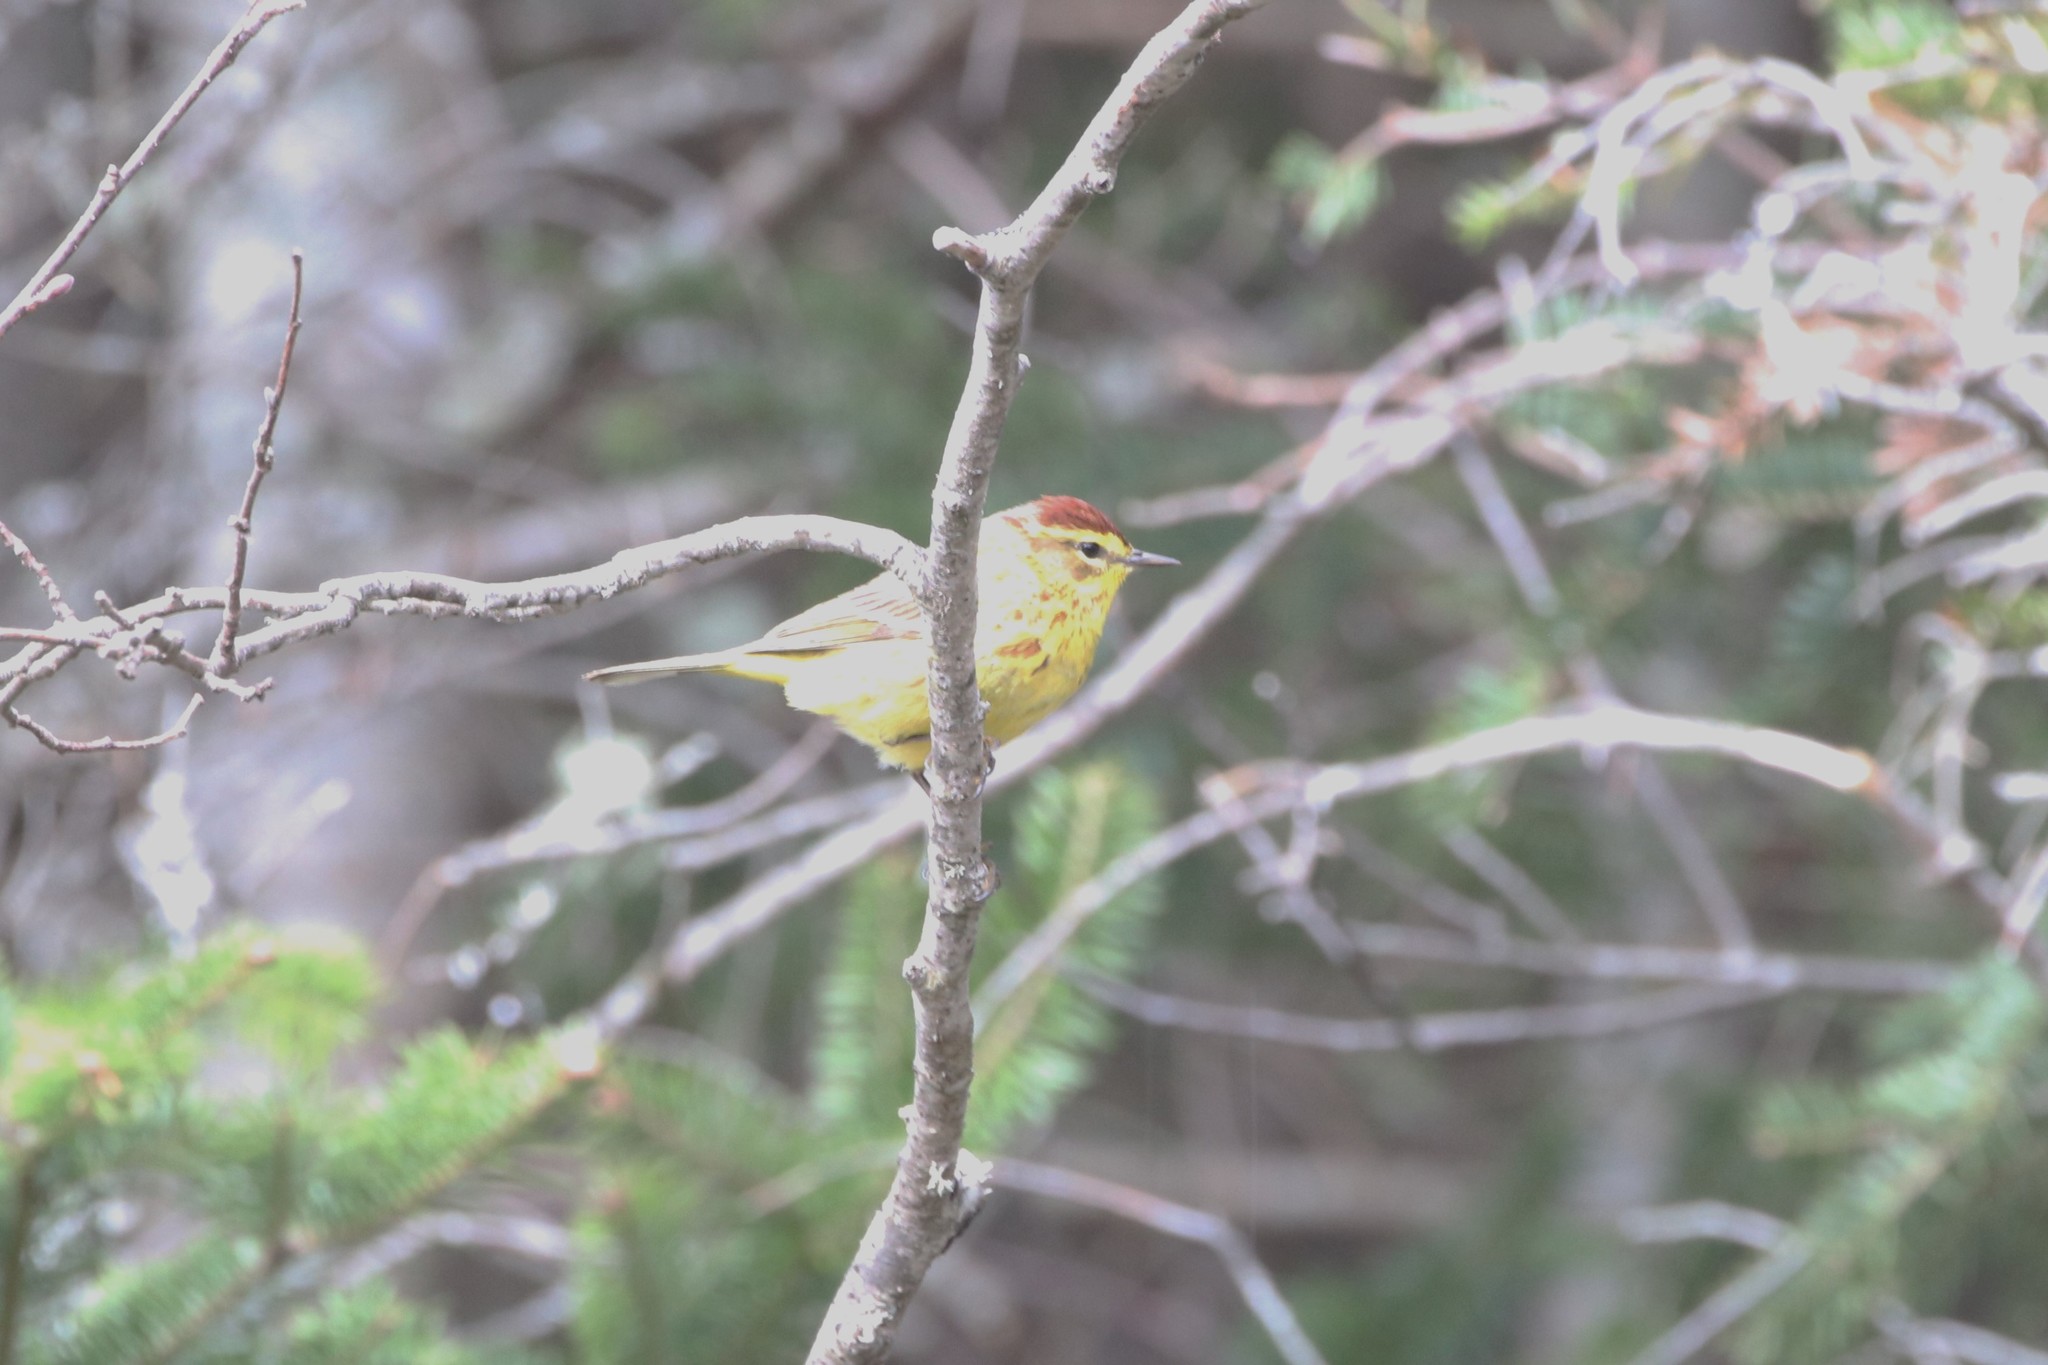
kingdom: Animalia
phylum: Chordata
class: Aves
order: Passeriformes
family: Parulidae
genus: Setophaga
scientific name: Setophaga palmarum
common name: Palm warbler
